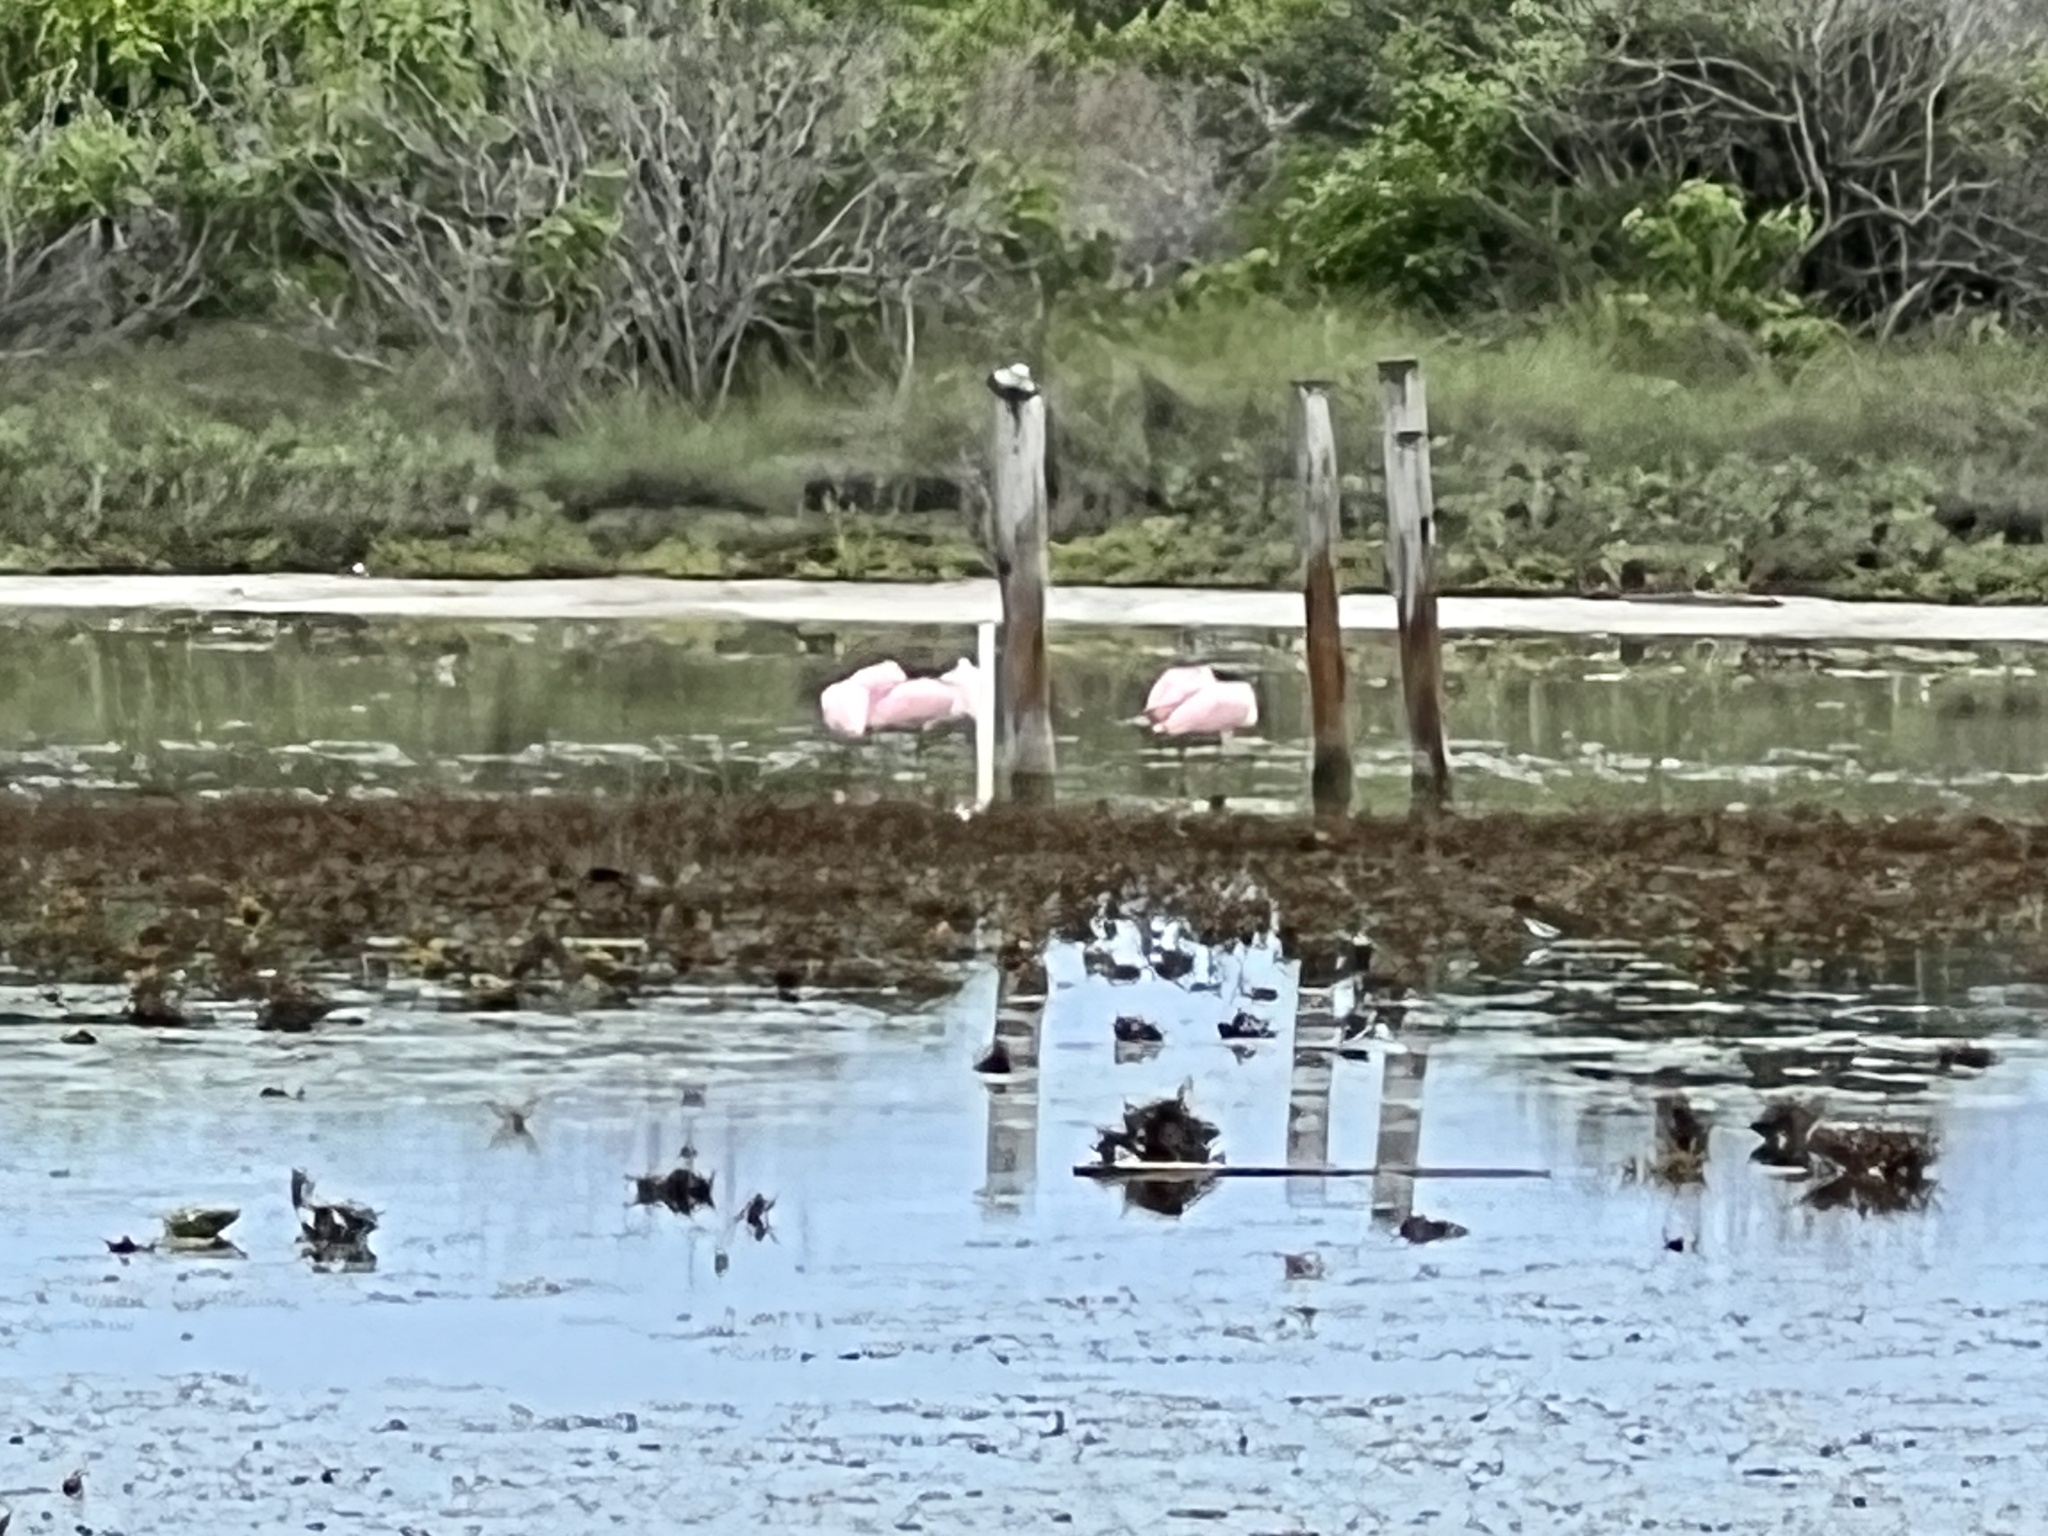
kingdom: Animalia
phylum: Chordata
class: Aves
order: Pelecaniformes
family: Threskiornithidae
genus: Platalea
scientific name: Platalea ajaja
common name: Roseate spoonbill
